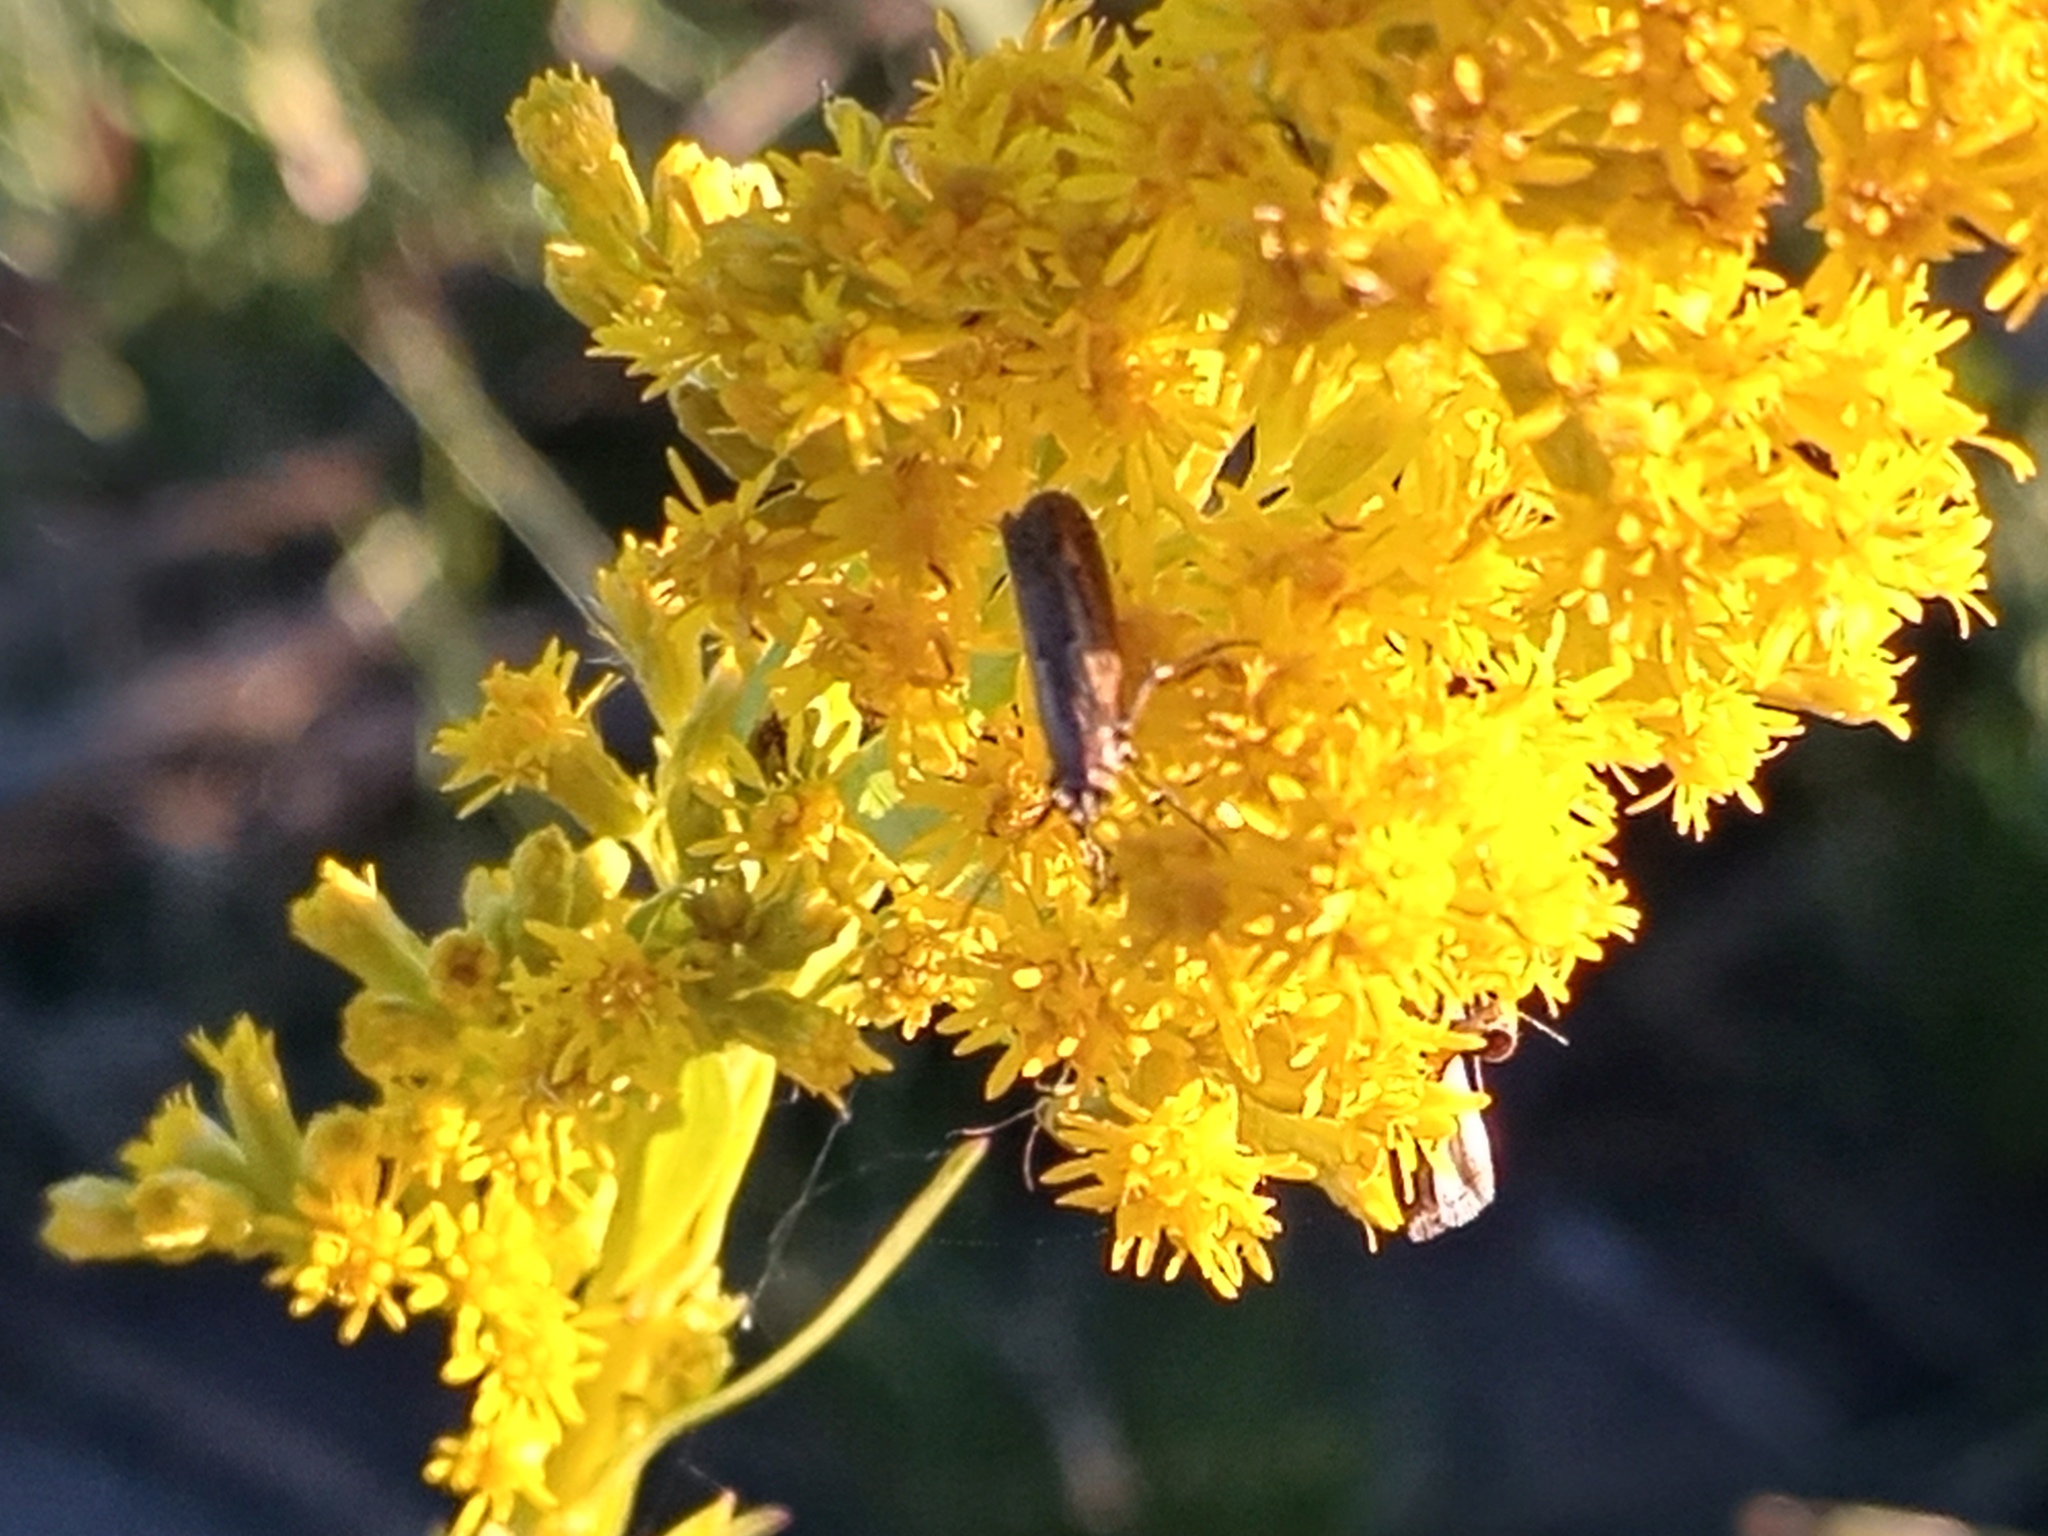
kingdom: Plantae
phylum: Tracheophyta
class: Magnoliopsida
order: Asterales
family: Asteraceae
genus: Solidago
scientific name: Solidago chilensis
